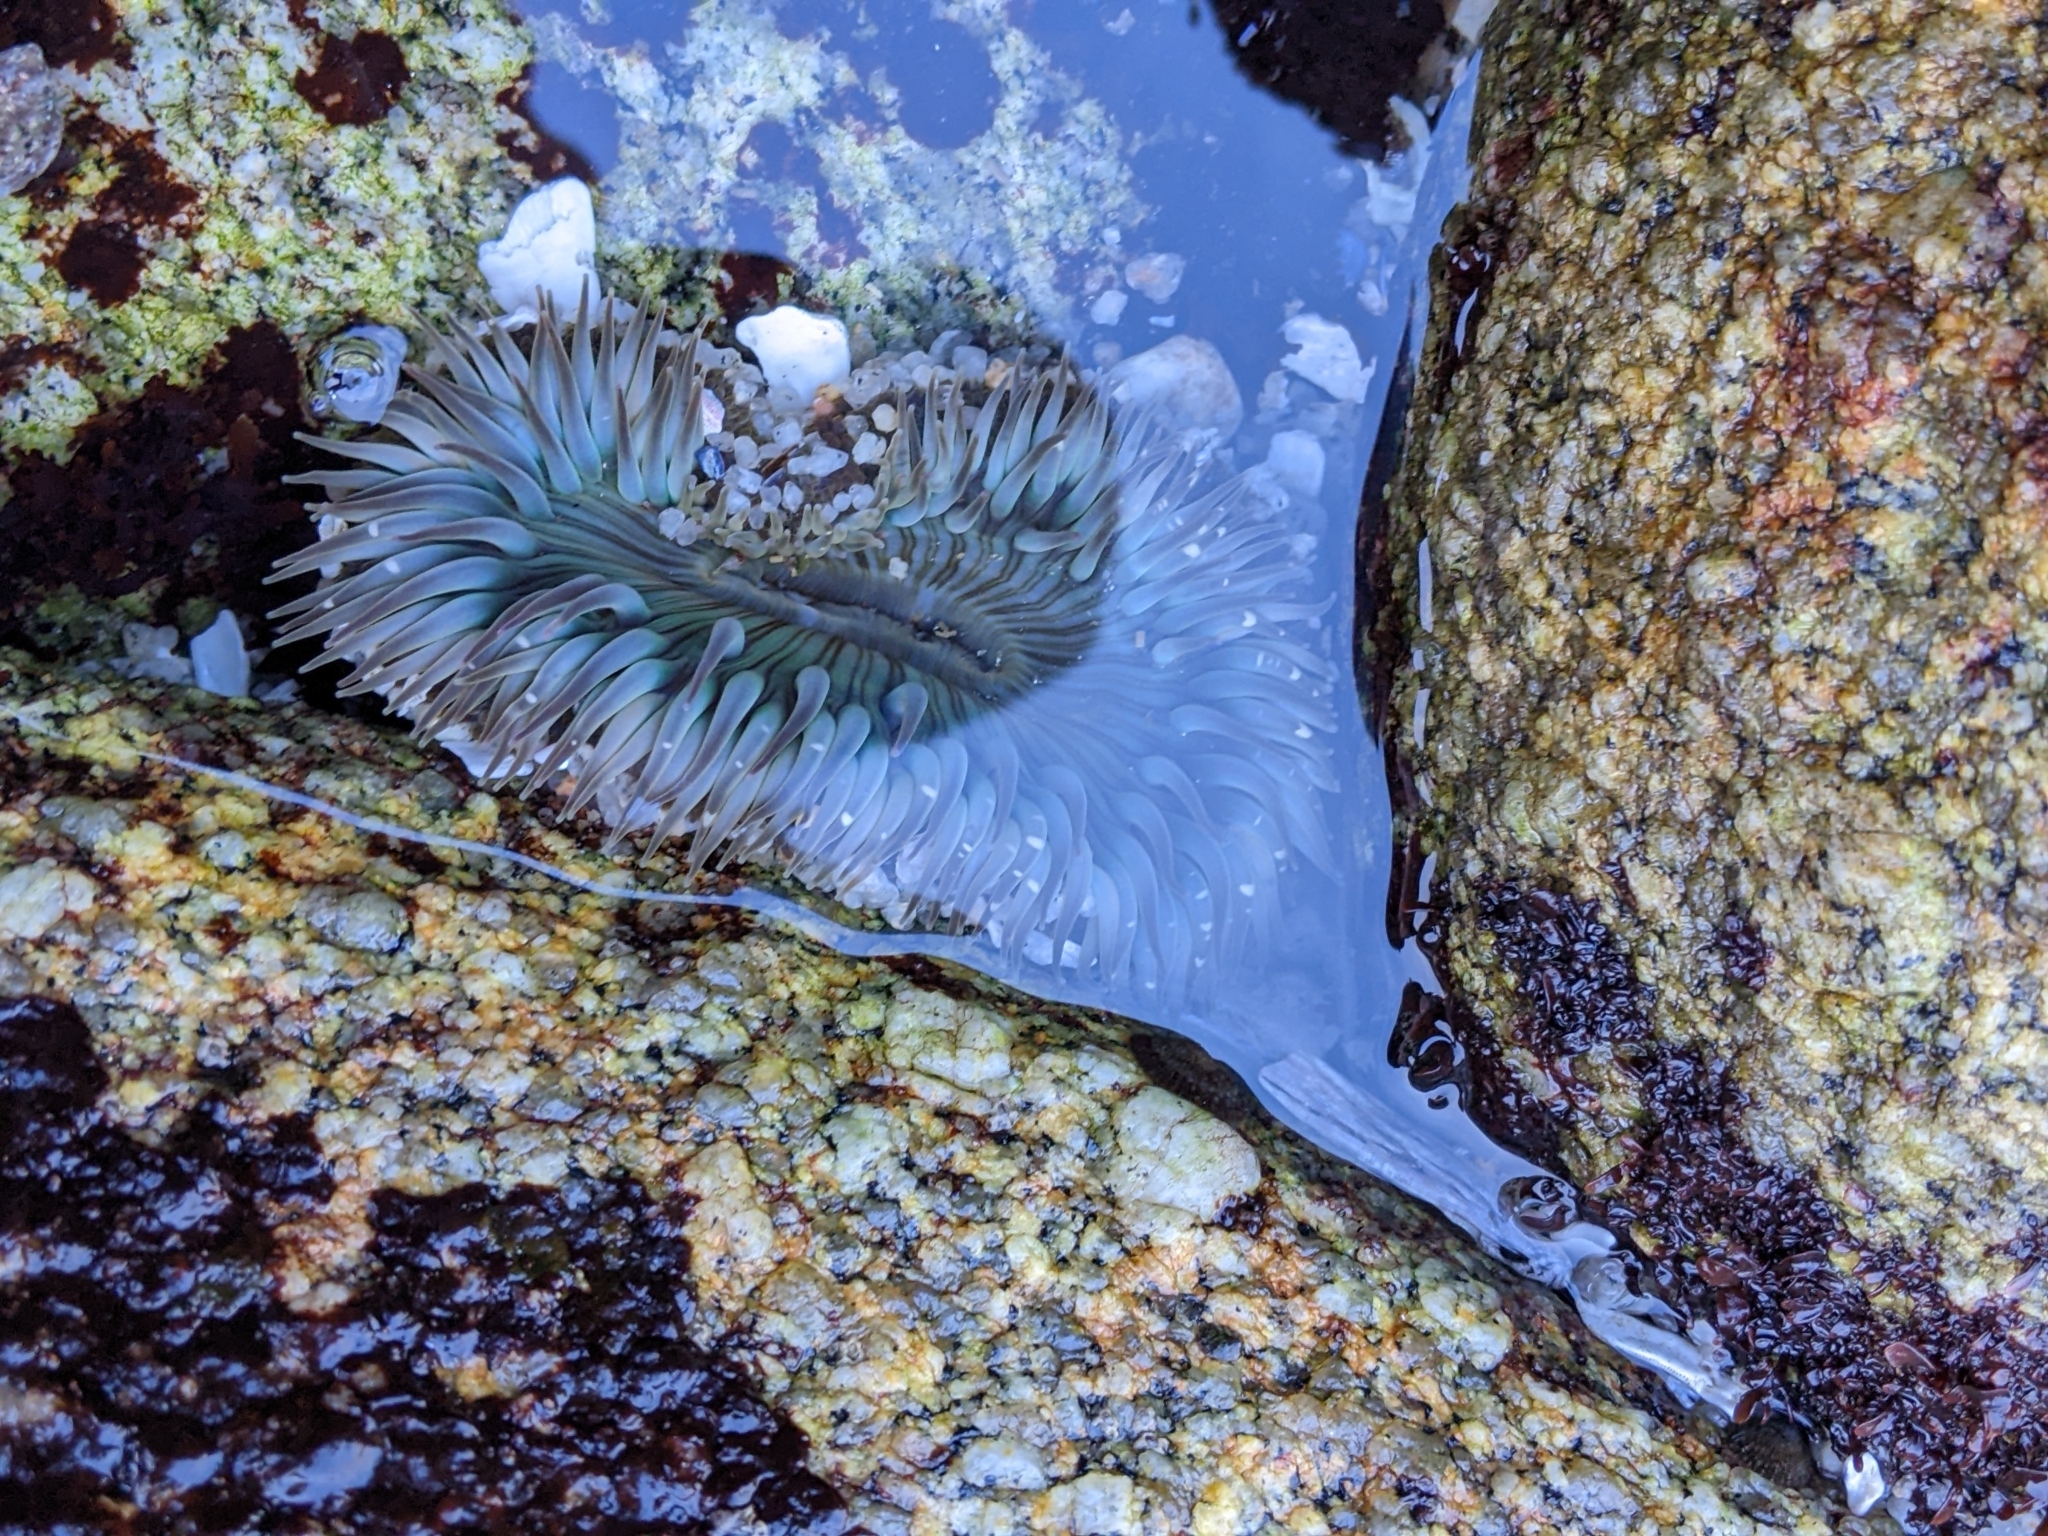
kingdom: Animalia
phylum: Cnidaria
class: Anthozoa
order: Actiniaria
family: Actiniidae
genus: Anthopleura
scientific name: Anthopleura sola
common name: Sun anemone
